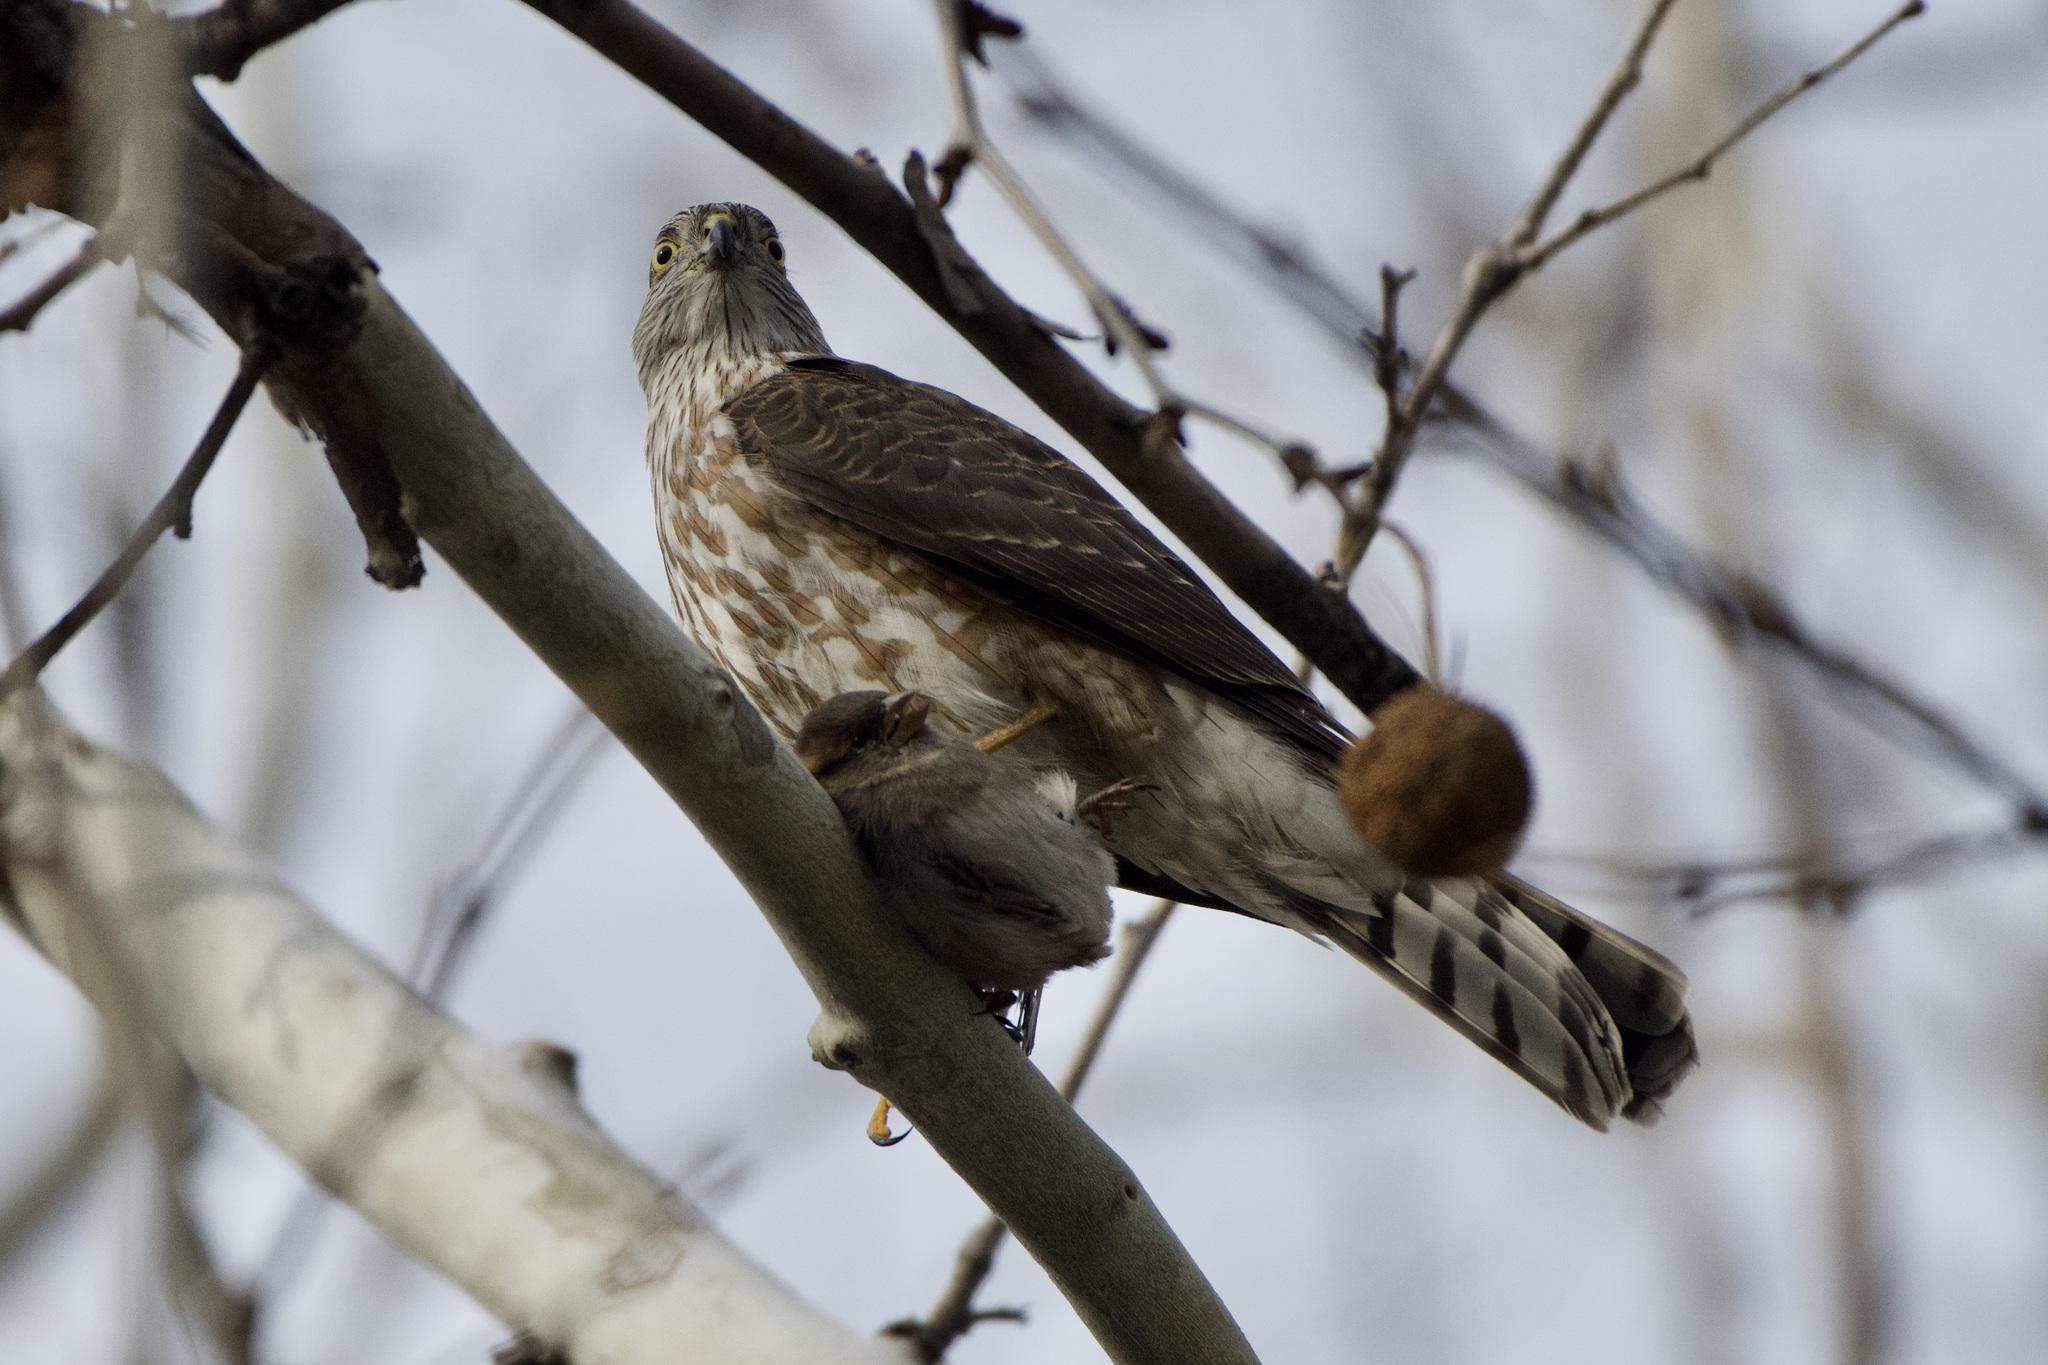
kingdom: Animalia
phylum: Chordata
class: Aves
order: Accipitriformes
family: Accipitridae
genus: Accipiter
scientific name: Accipiter striatus
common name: Sharp-shinned hawk
